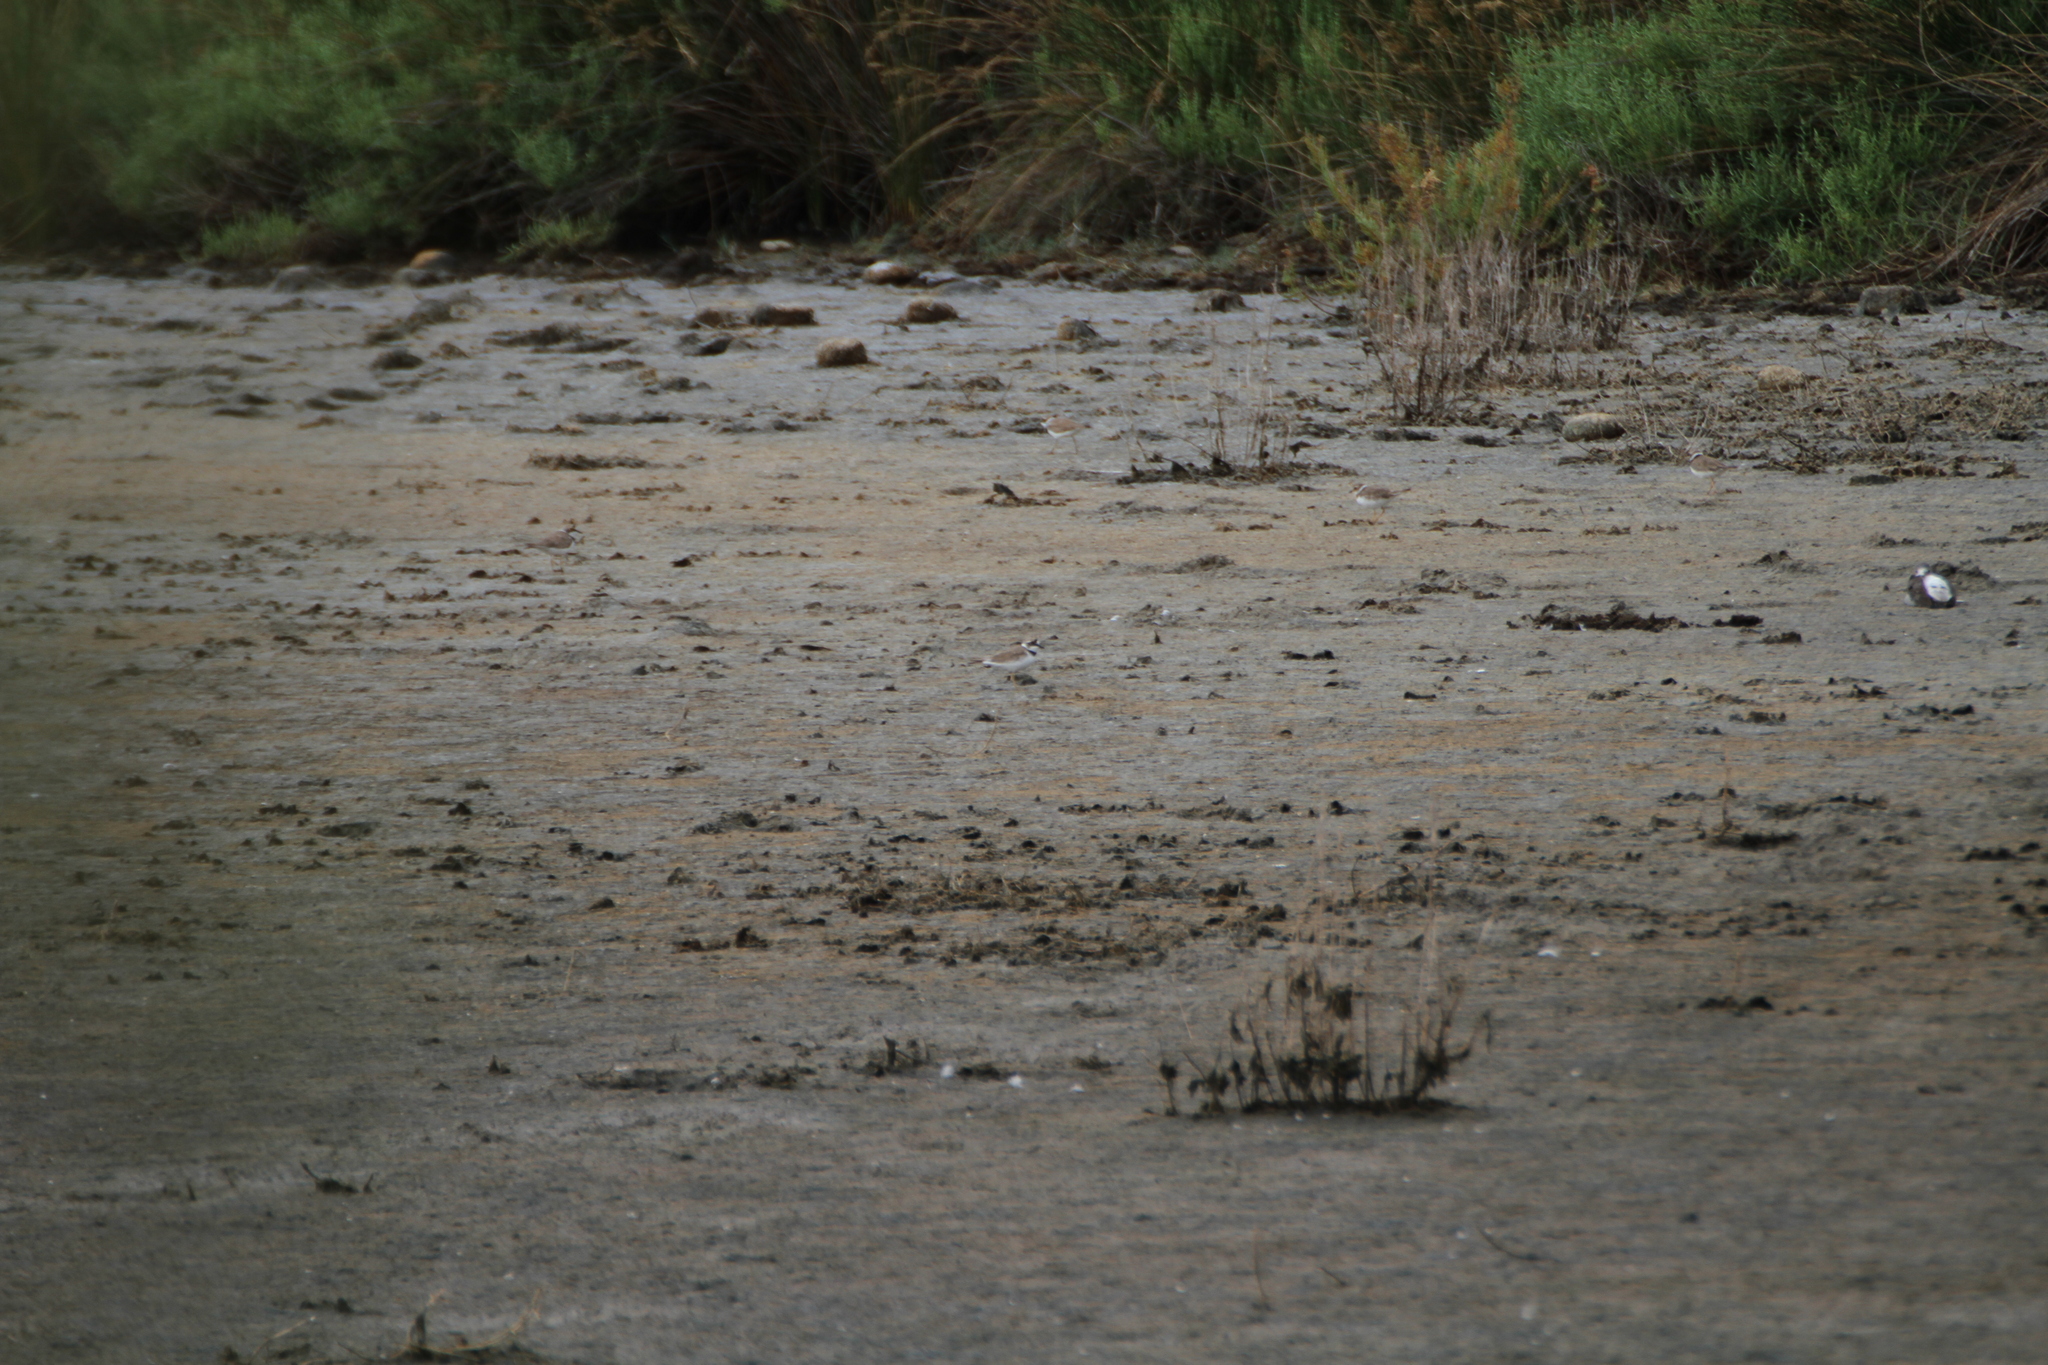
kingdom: Animalia
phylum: Chordata
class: Aves
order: Charadriiformes
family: Charadriidae
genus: Charadrius
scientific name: Charadrius alexandrinus
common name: Kentish plover
